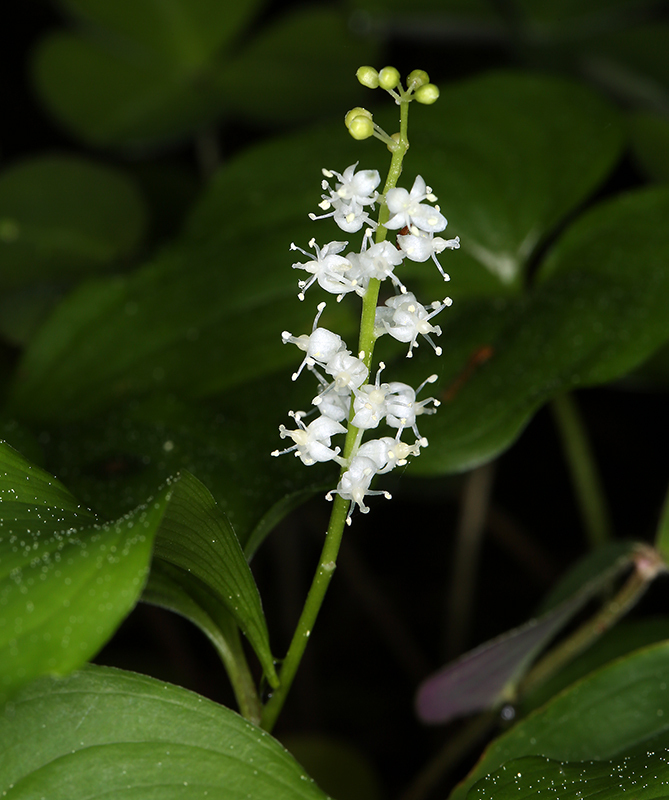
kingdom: Plantae
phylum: Tracheophyta
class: Liliopsida
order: Asparagales
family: Asparagaceae
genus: Maianthemum
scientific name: Maianthemum dilatatum
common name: False lily-of-the-valley
